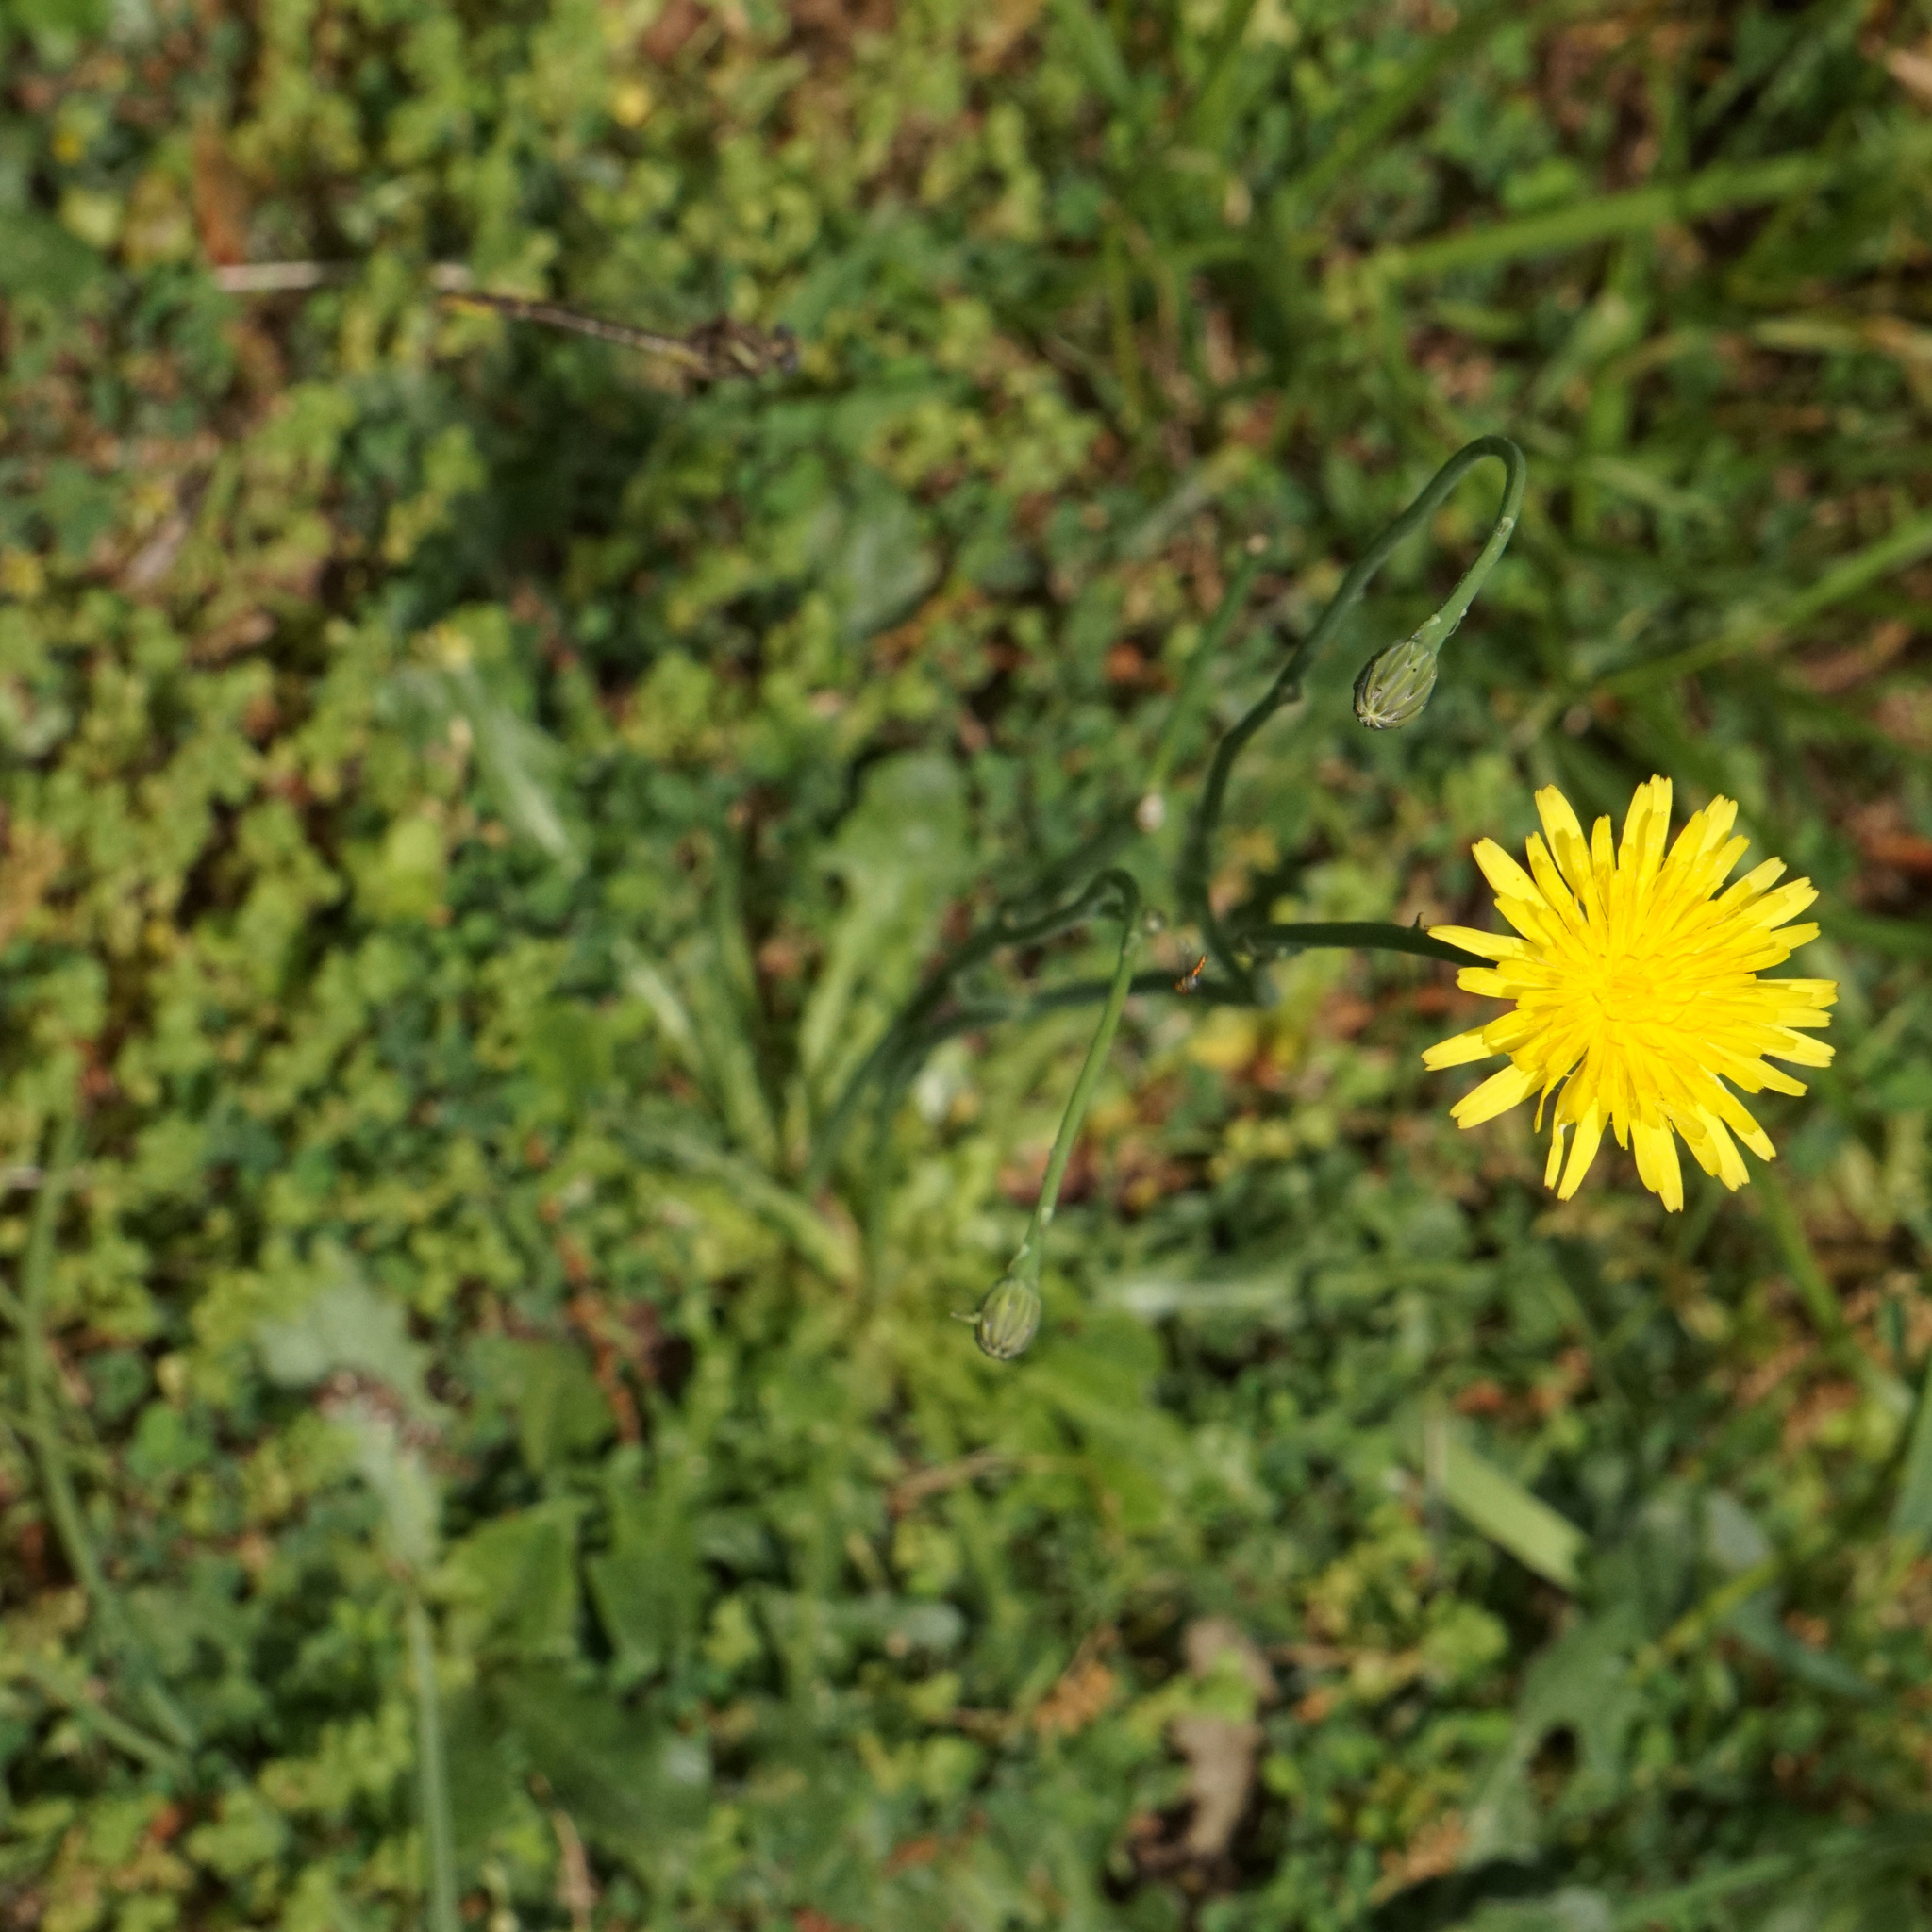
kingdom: Plantae
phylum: Tracheophyta
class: Magnoliopsida
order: Asterales
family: Asteraceae
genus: Hypochaeris
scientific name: Hypochaeris radicata
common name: Flatweed
